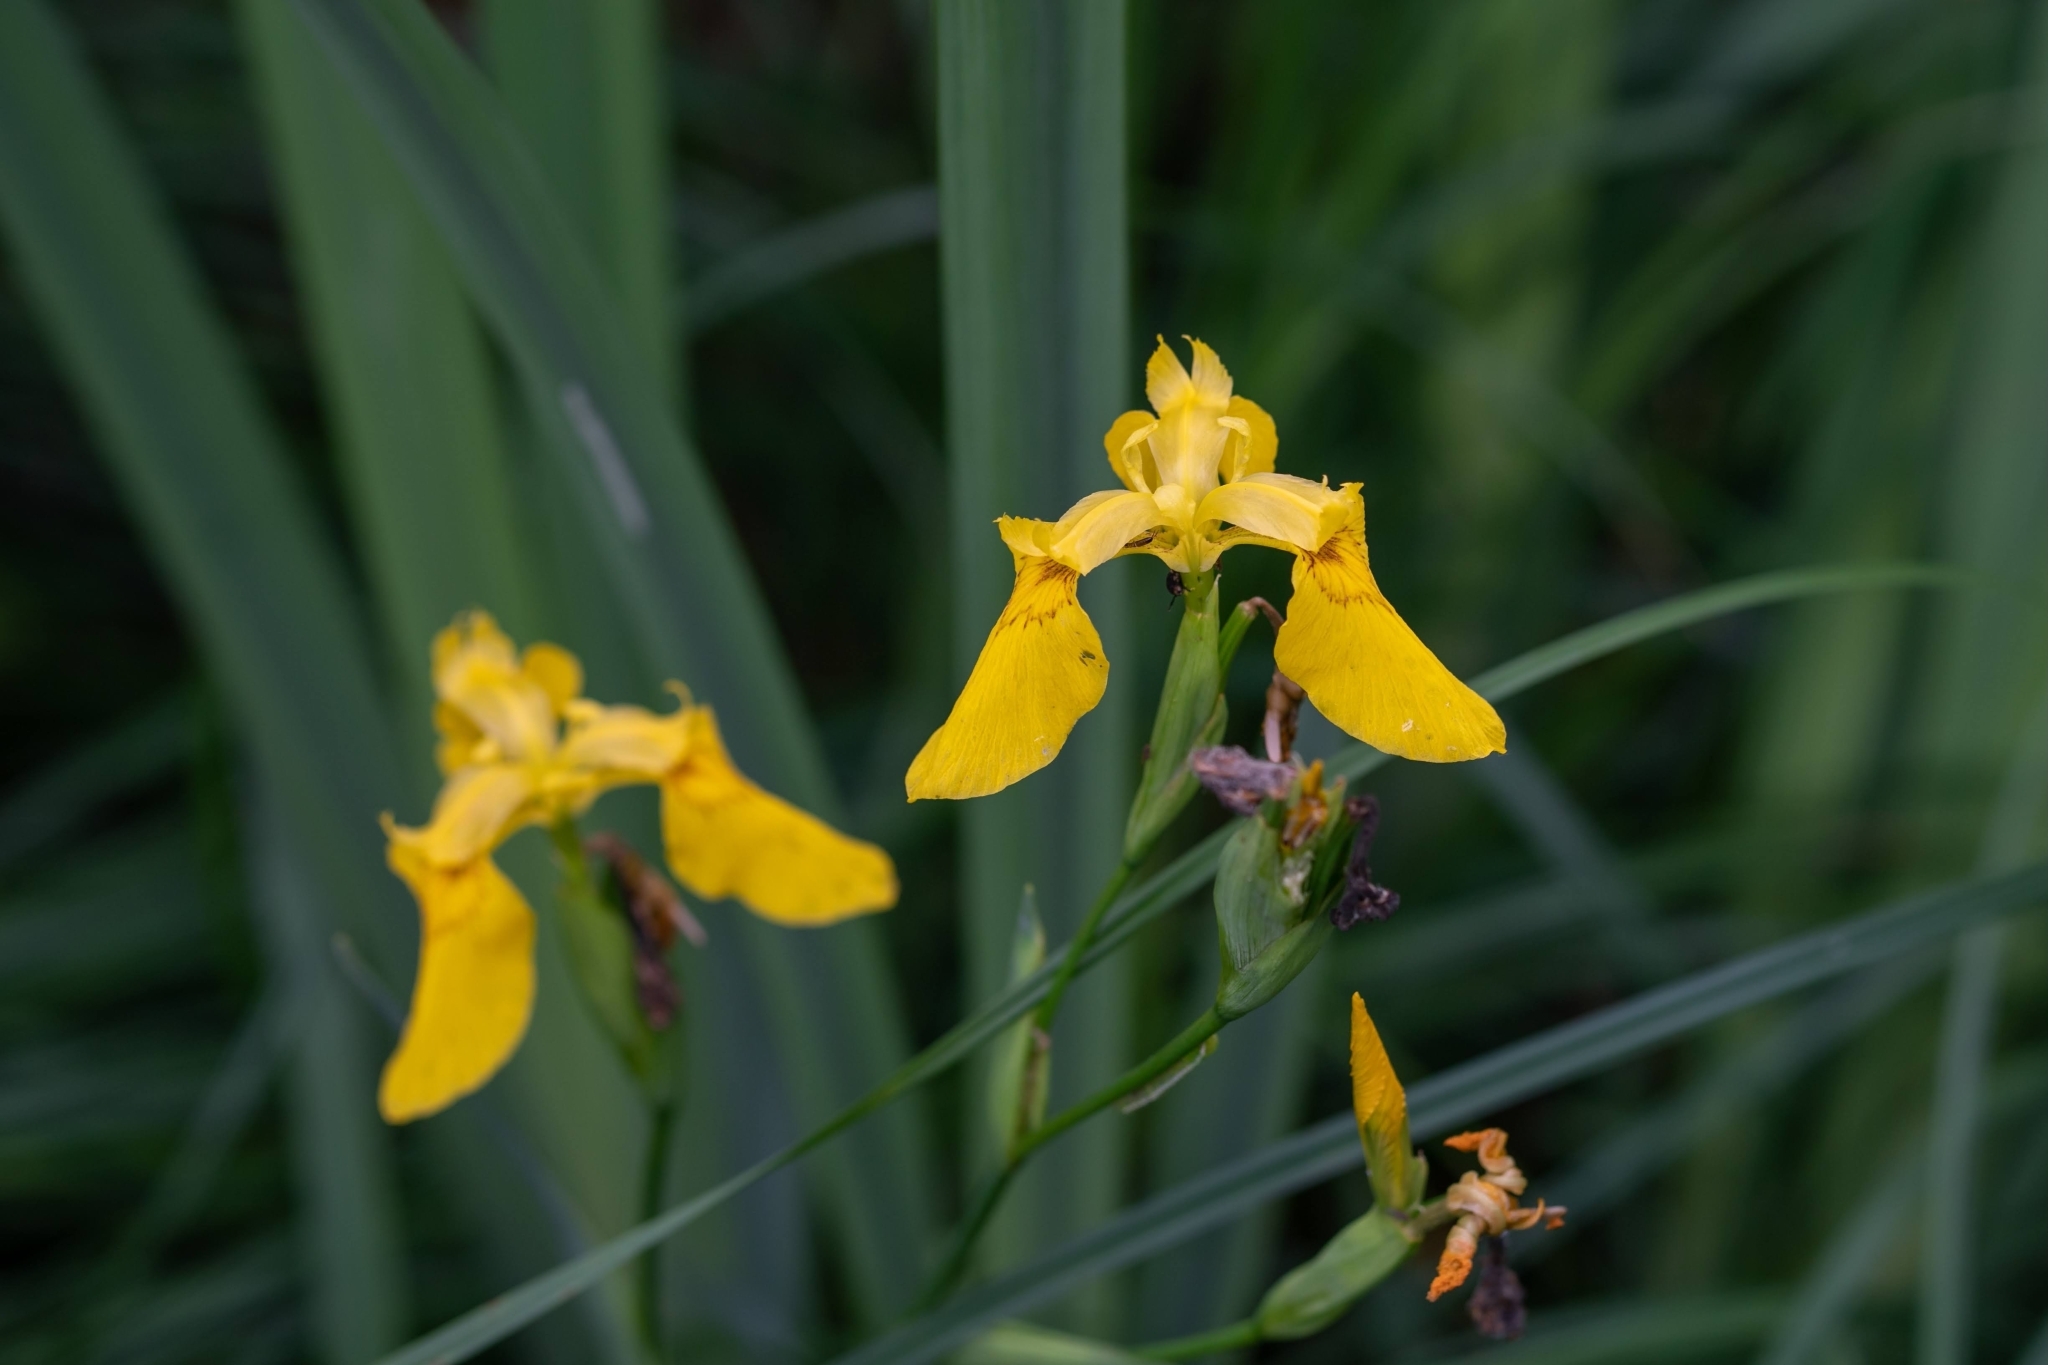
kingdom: Plantae
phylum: Tracheophyta
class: Liliopsida
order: Asparagales
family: Iridaceae
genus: Iris
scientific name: Iris pseudacorus
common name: Yellow flag
